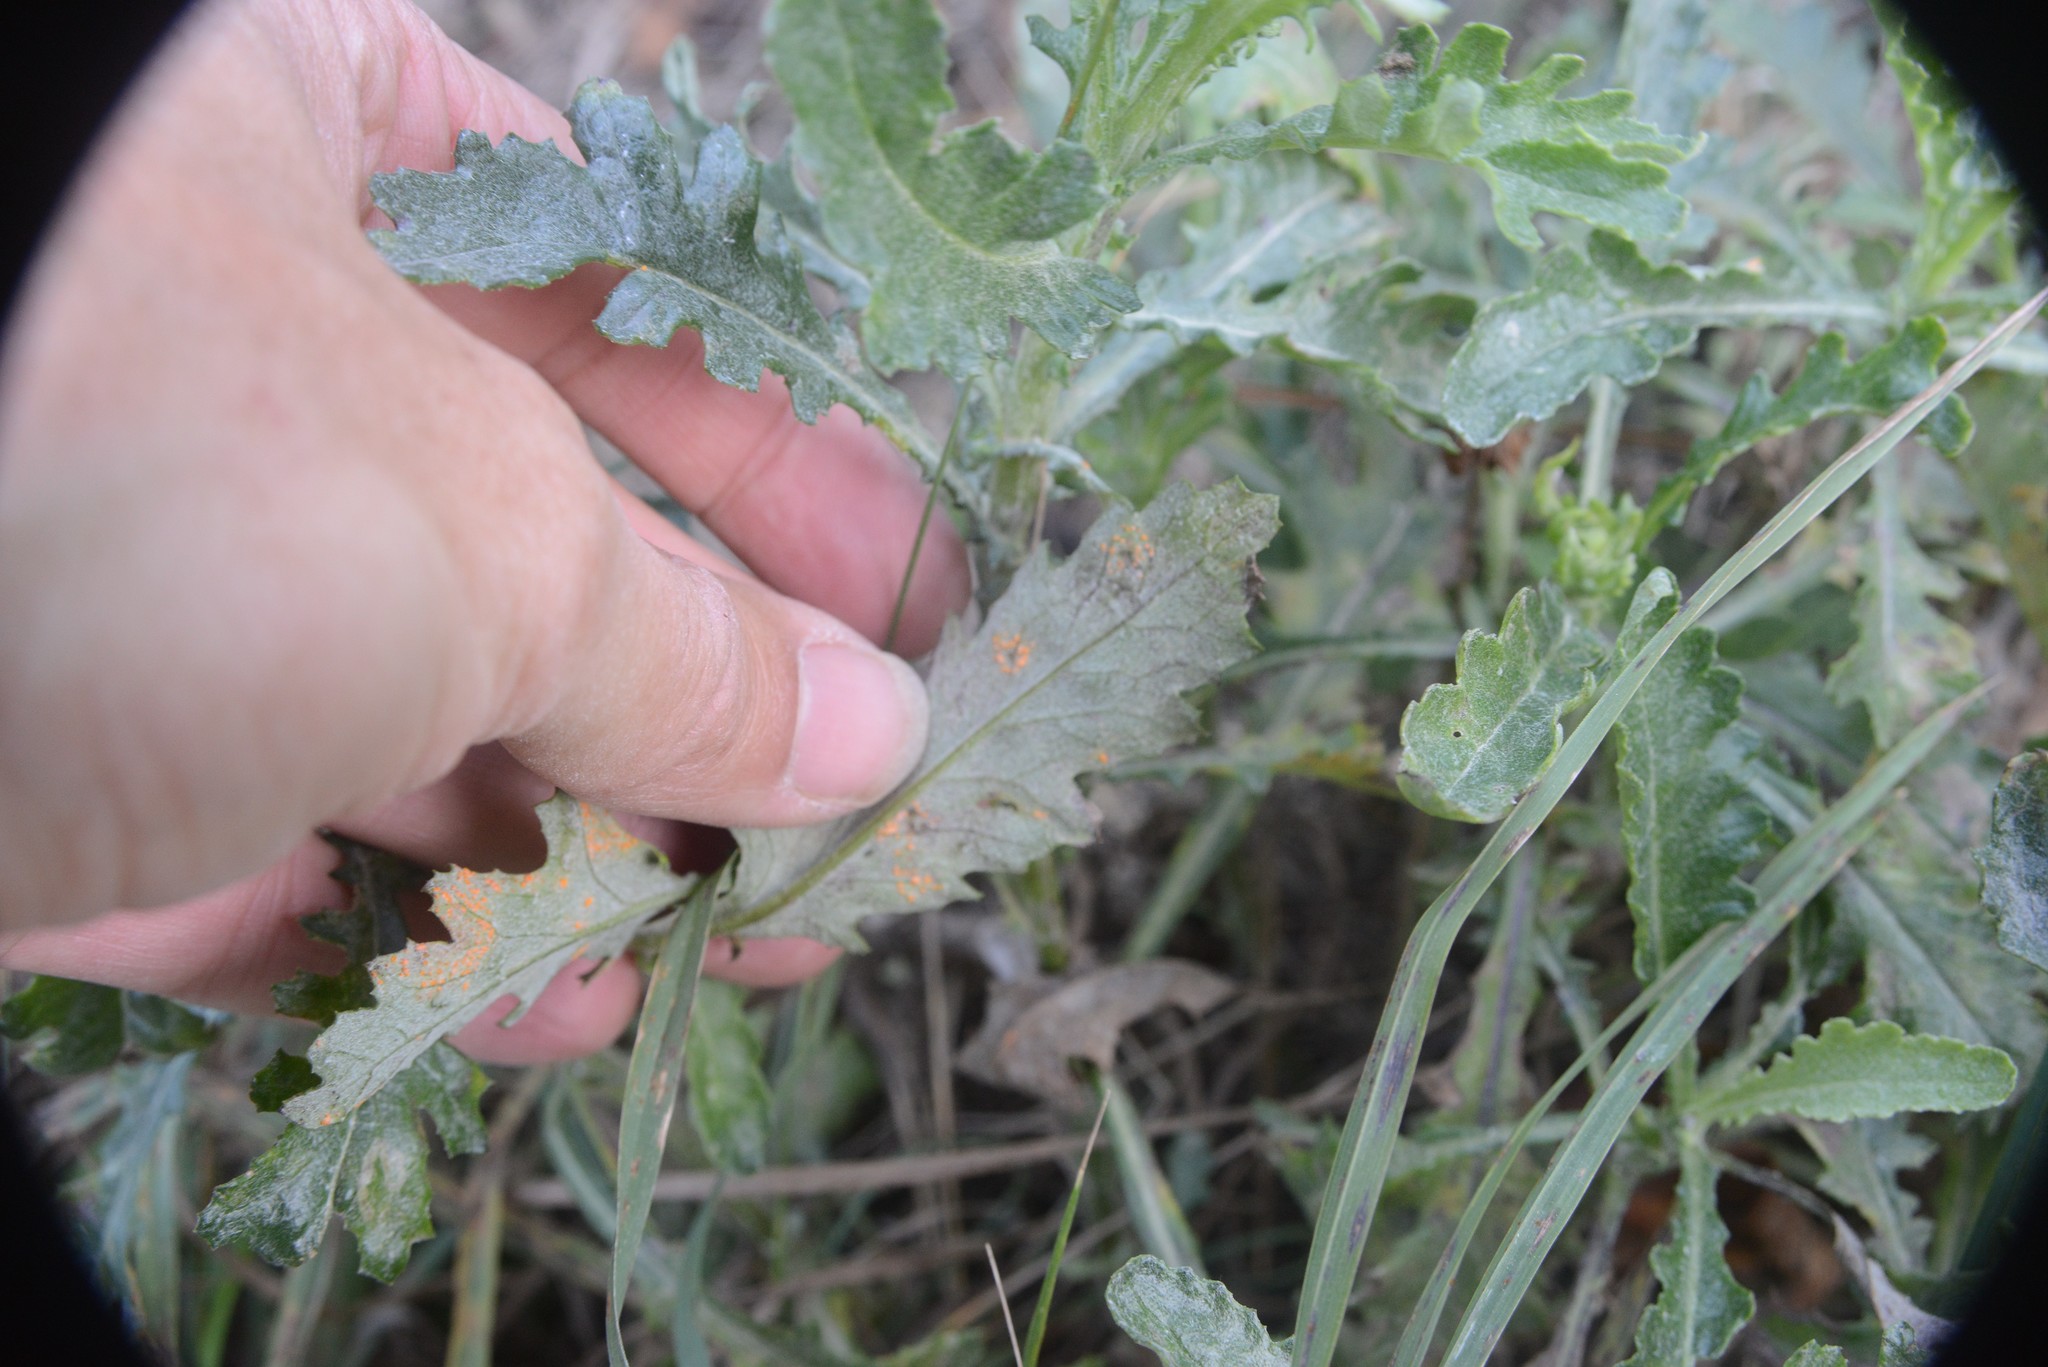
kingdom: Fungi
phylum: Basidiomycota
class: Pucciniomycetes
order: Pucciniales
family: Coleosporiaceae
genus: Coleosporium
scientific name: Coleosporium tussilaginis
